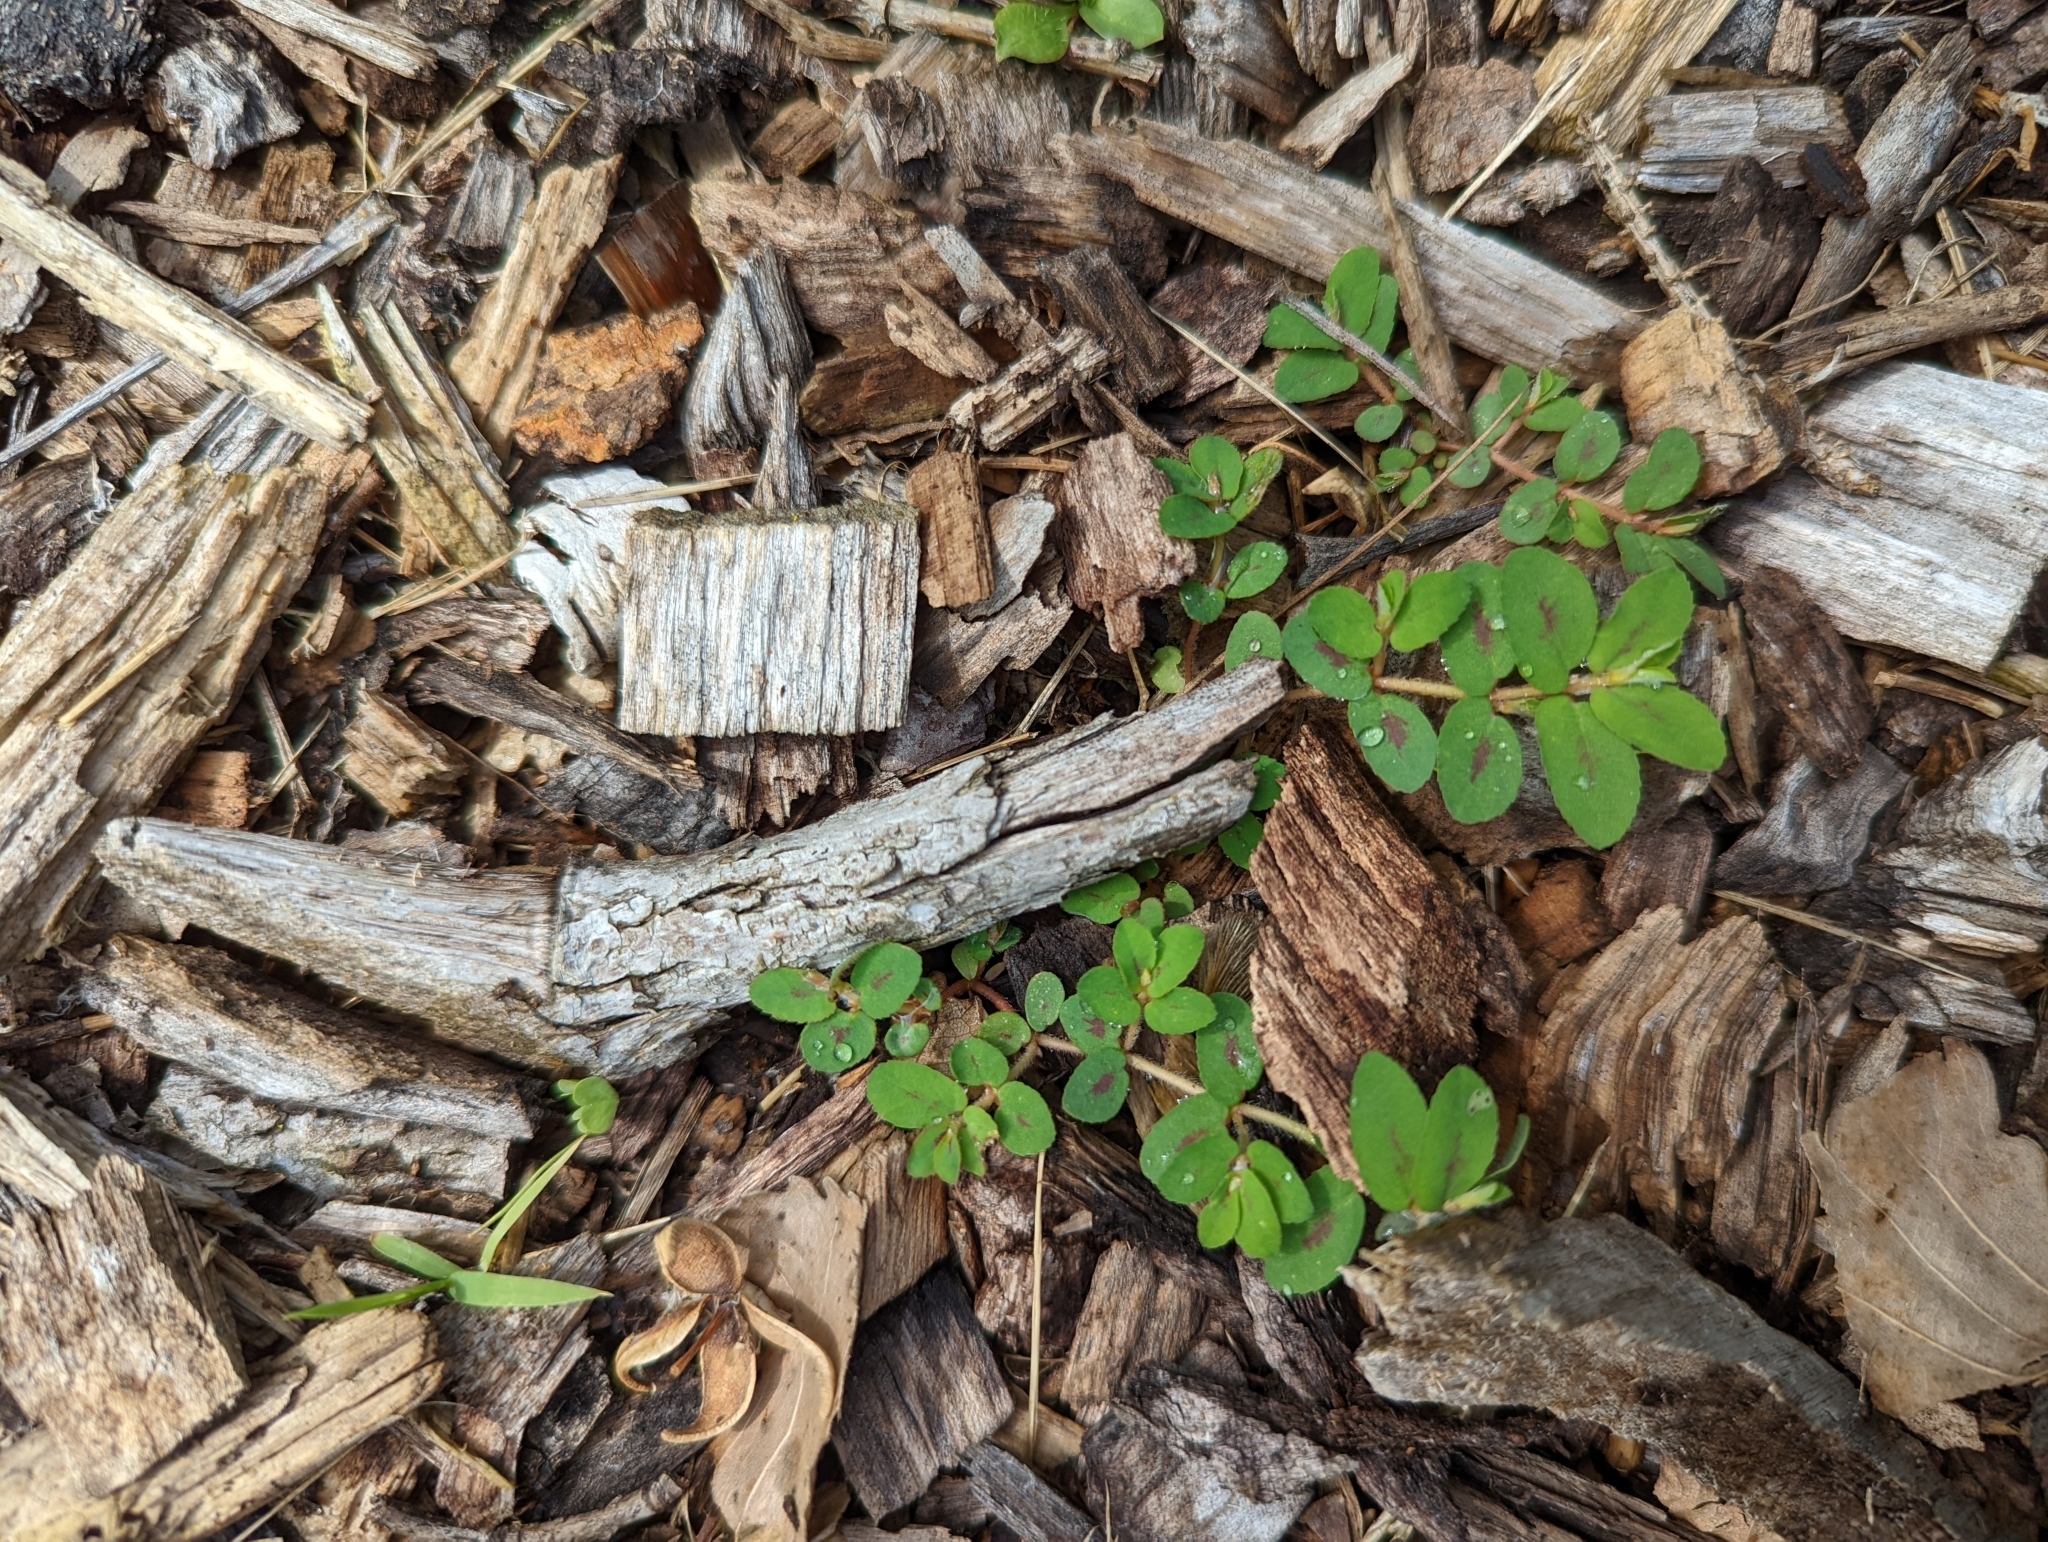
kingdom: Plantae
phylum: Tracheophyta
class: Magnoliopsida
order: Malpighiales
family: Euphorbiaceae
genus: Euphorbia
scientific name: Euphorbia maculata
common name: Spotted spurge
